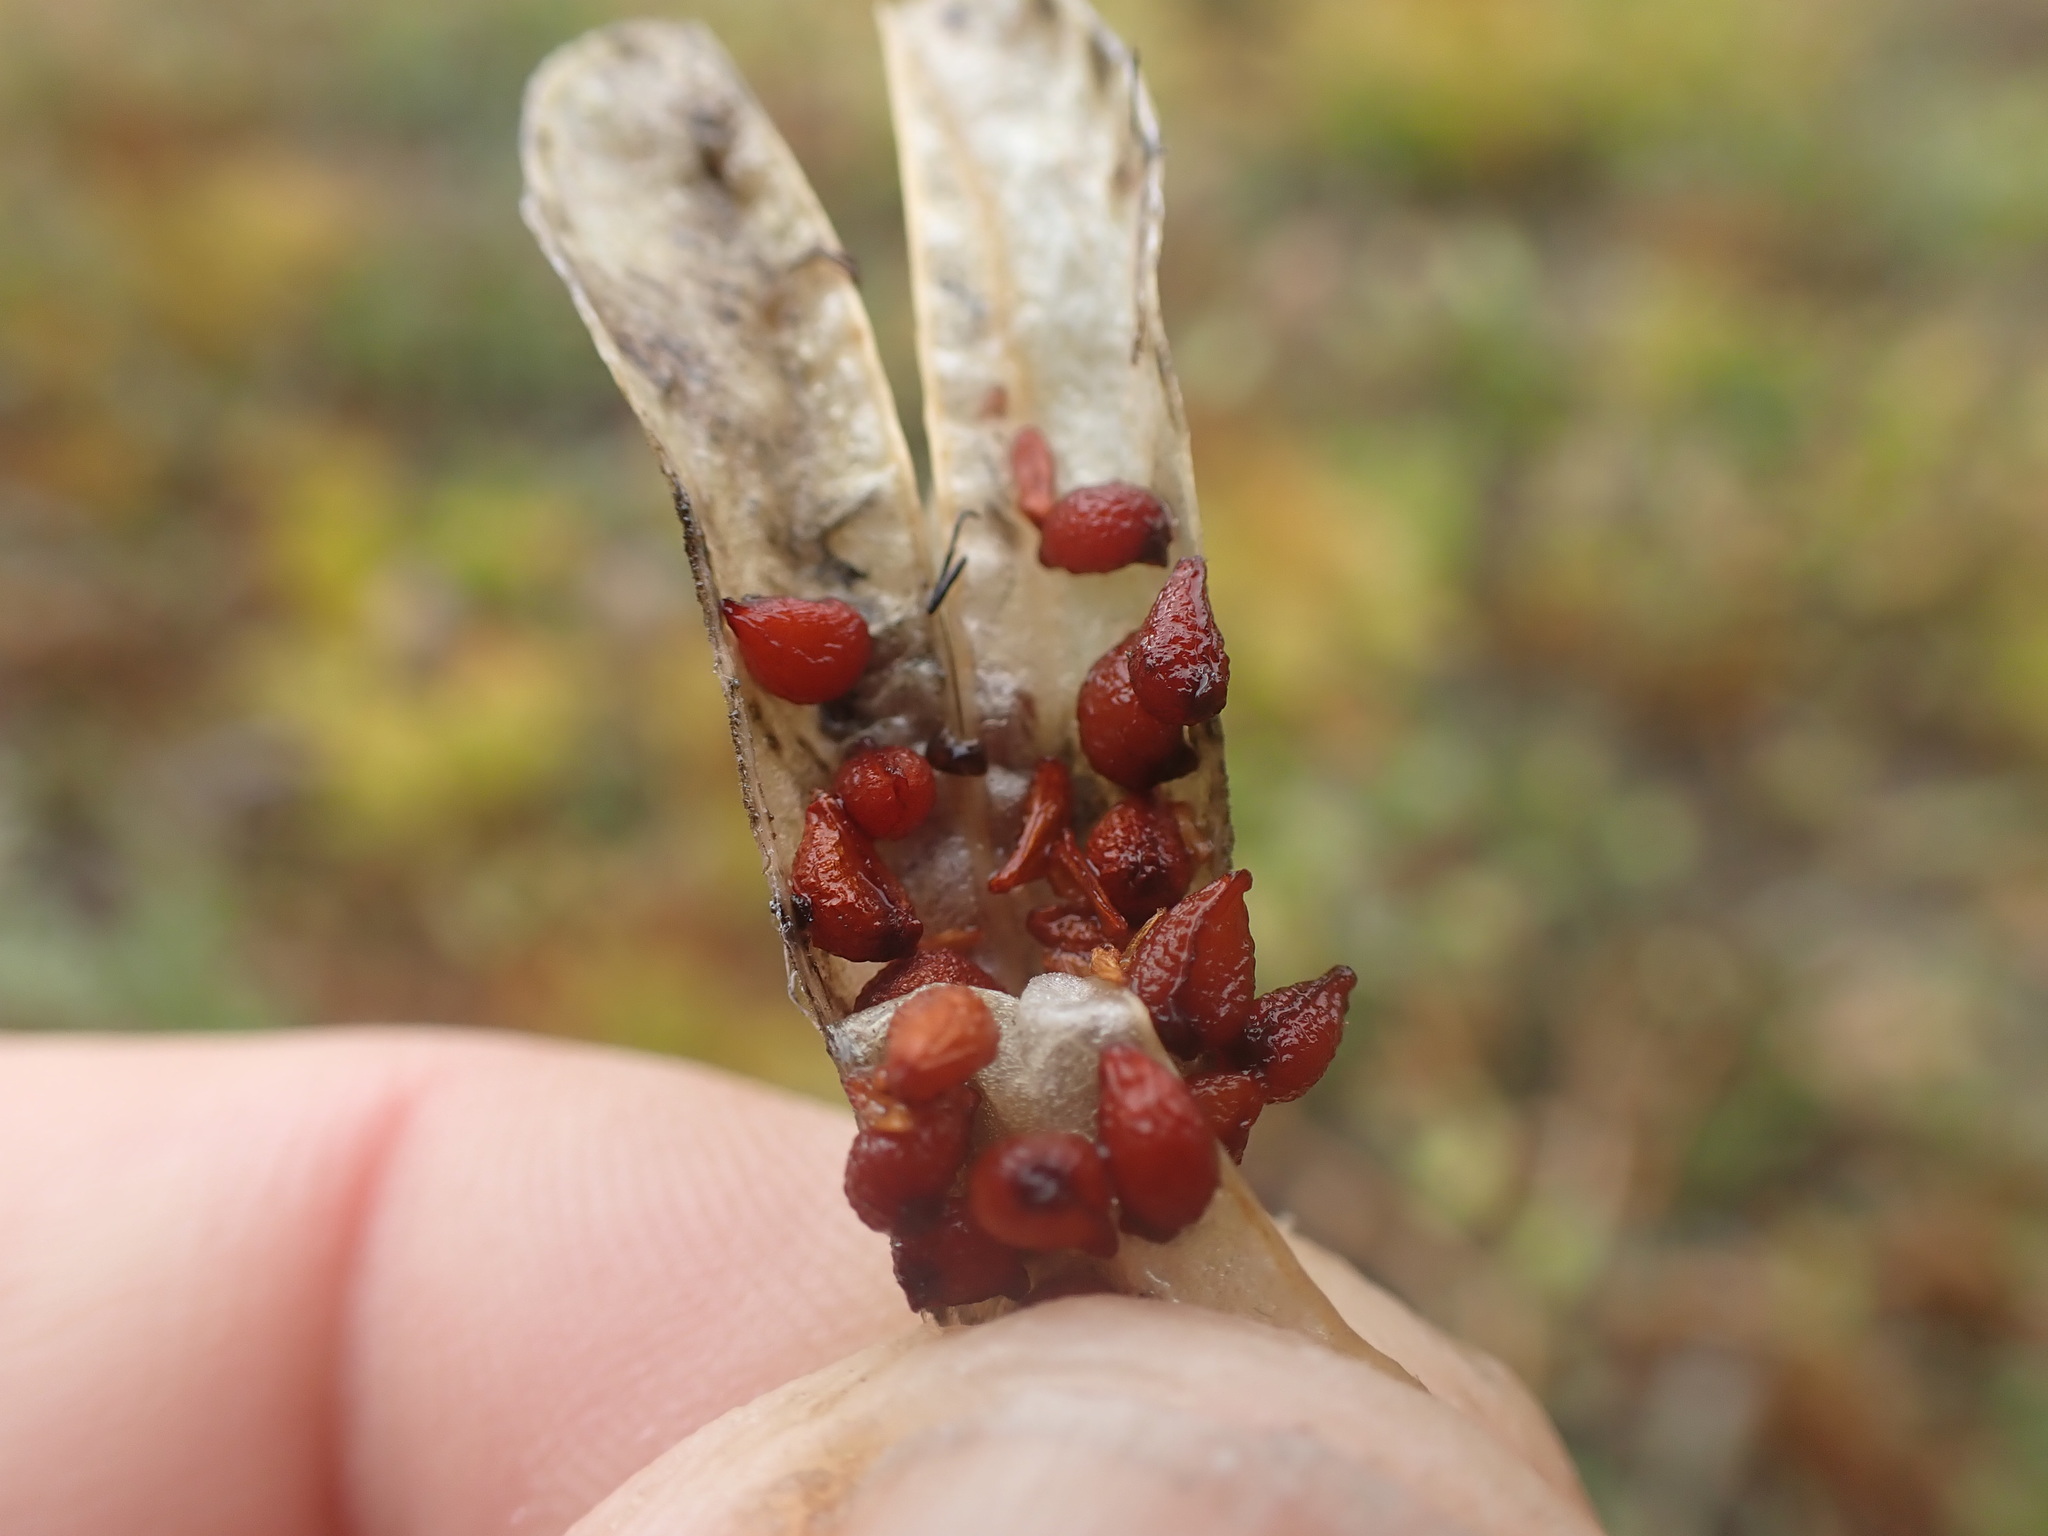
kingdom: Plantae
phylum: Tracheophyta
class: Liliopsida
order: Liliales
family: Liliaceae
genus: Erythronium
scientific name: Erythronium grandiflorum
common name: Avalanche-lily
